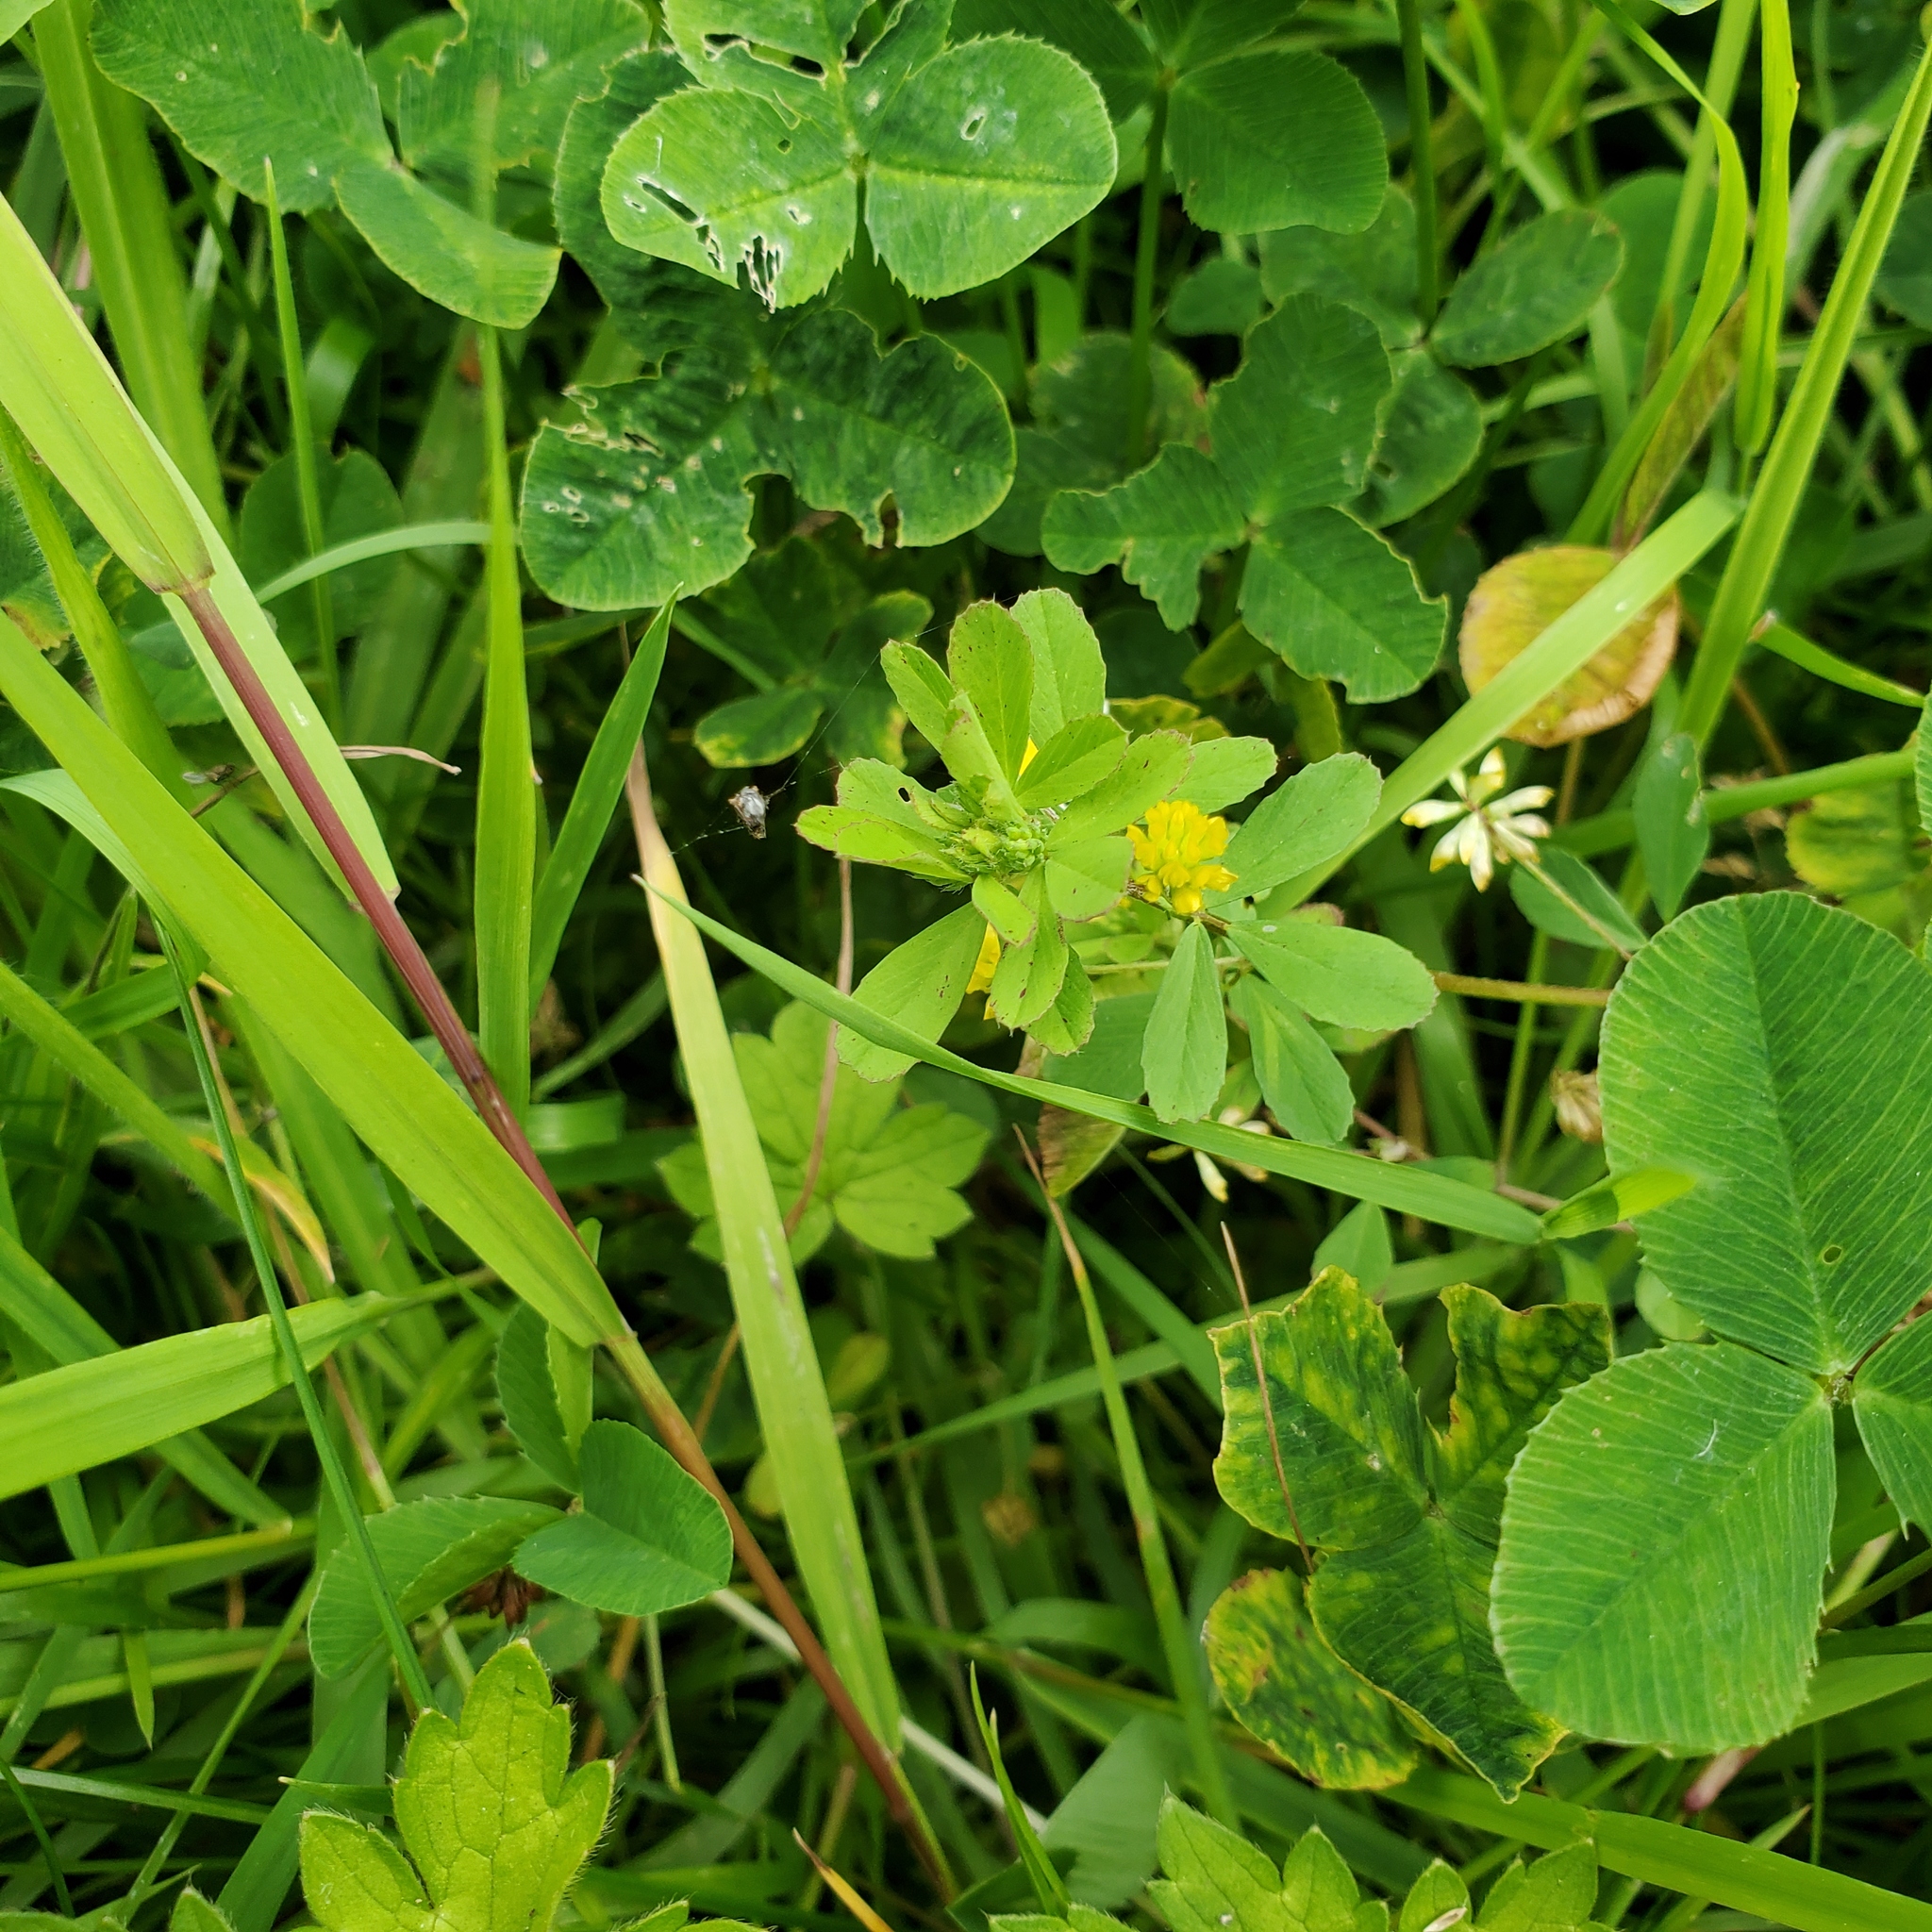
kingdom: Plantae
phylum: Tracheophyta
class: Magnoliopsida
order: Fabales
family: Fabaceae
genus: Trifolium
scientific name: Trifolium dubium
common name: Suckling clover
